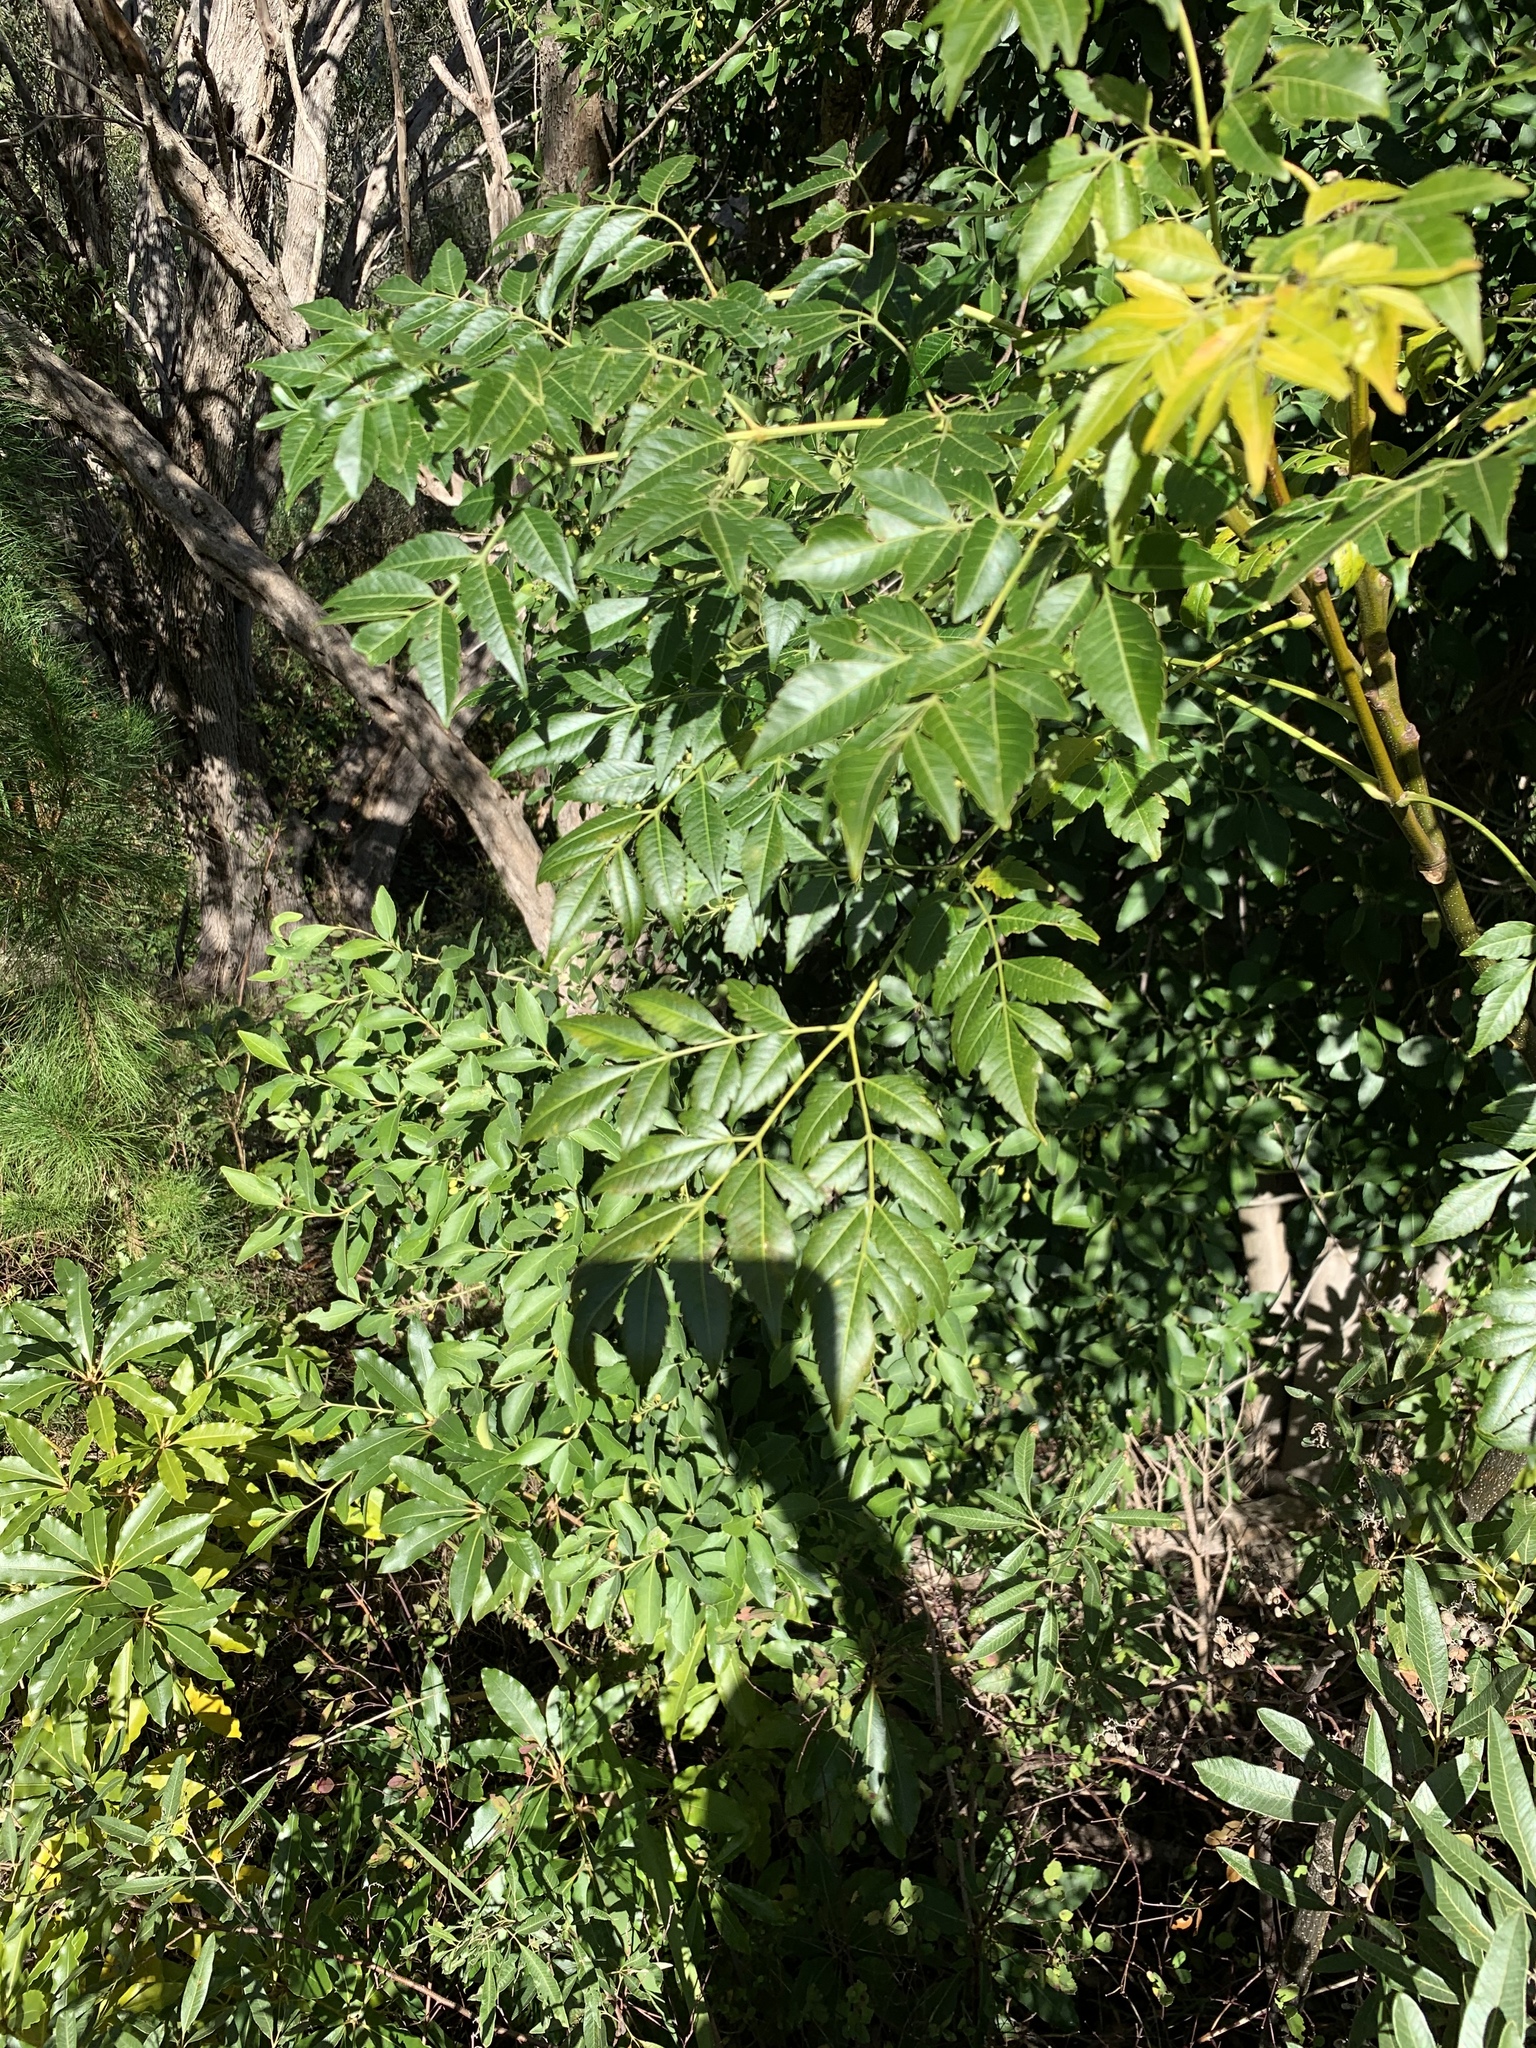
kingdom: Plantae
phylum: Tracheophyta
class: Magnoliopsida
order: Sapindales
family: Meliaceae
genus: Melia
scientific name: Melia azedarach
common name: Chinaberrytree
